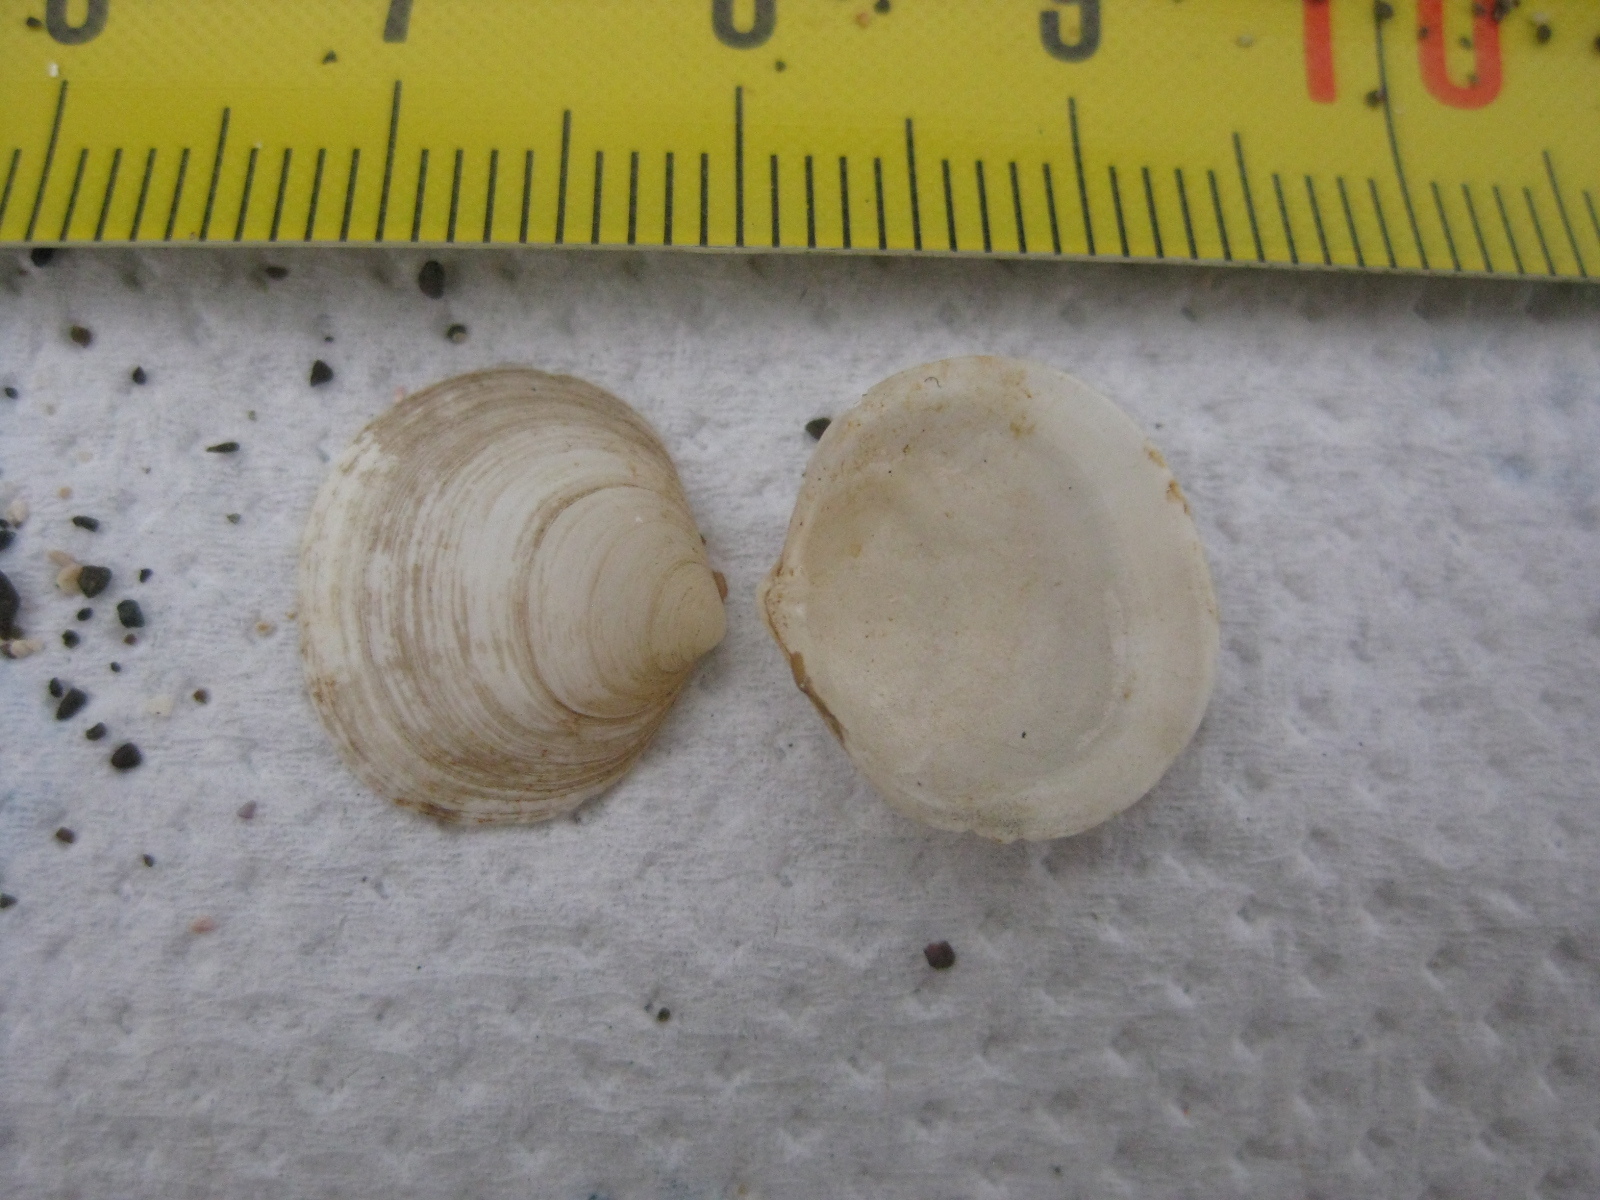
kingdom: Animalia
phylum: Mollusca
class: Bivalvia
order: Venerida
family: Ungulinidae
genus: Zemysia
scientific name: Zemysia zelandica
